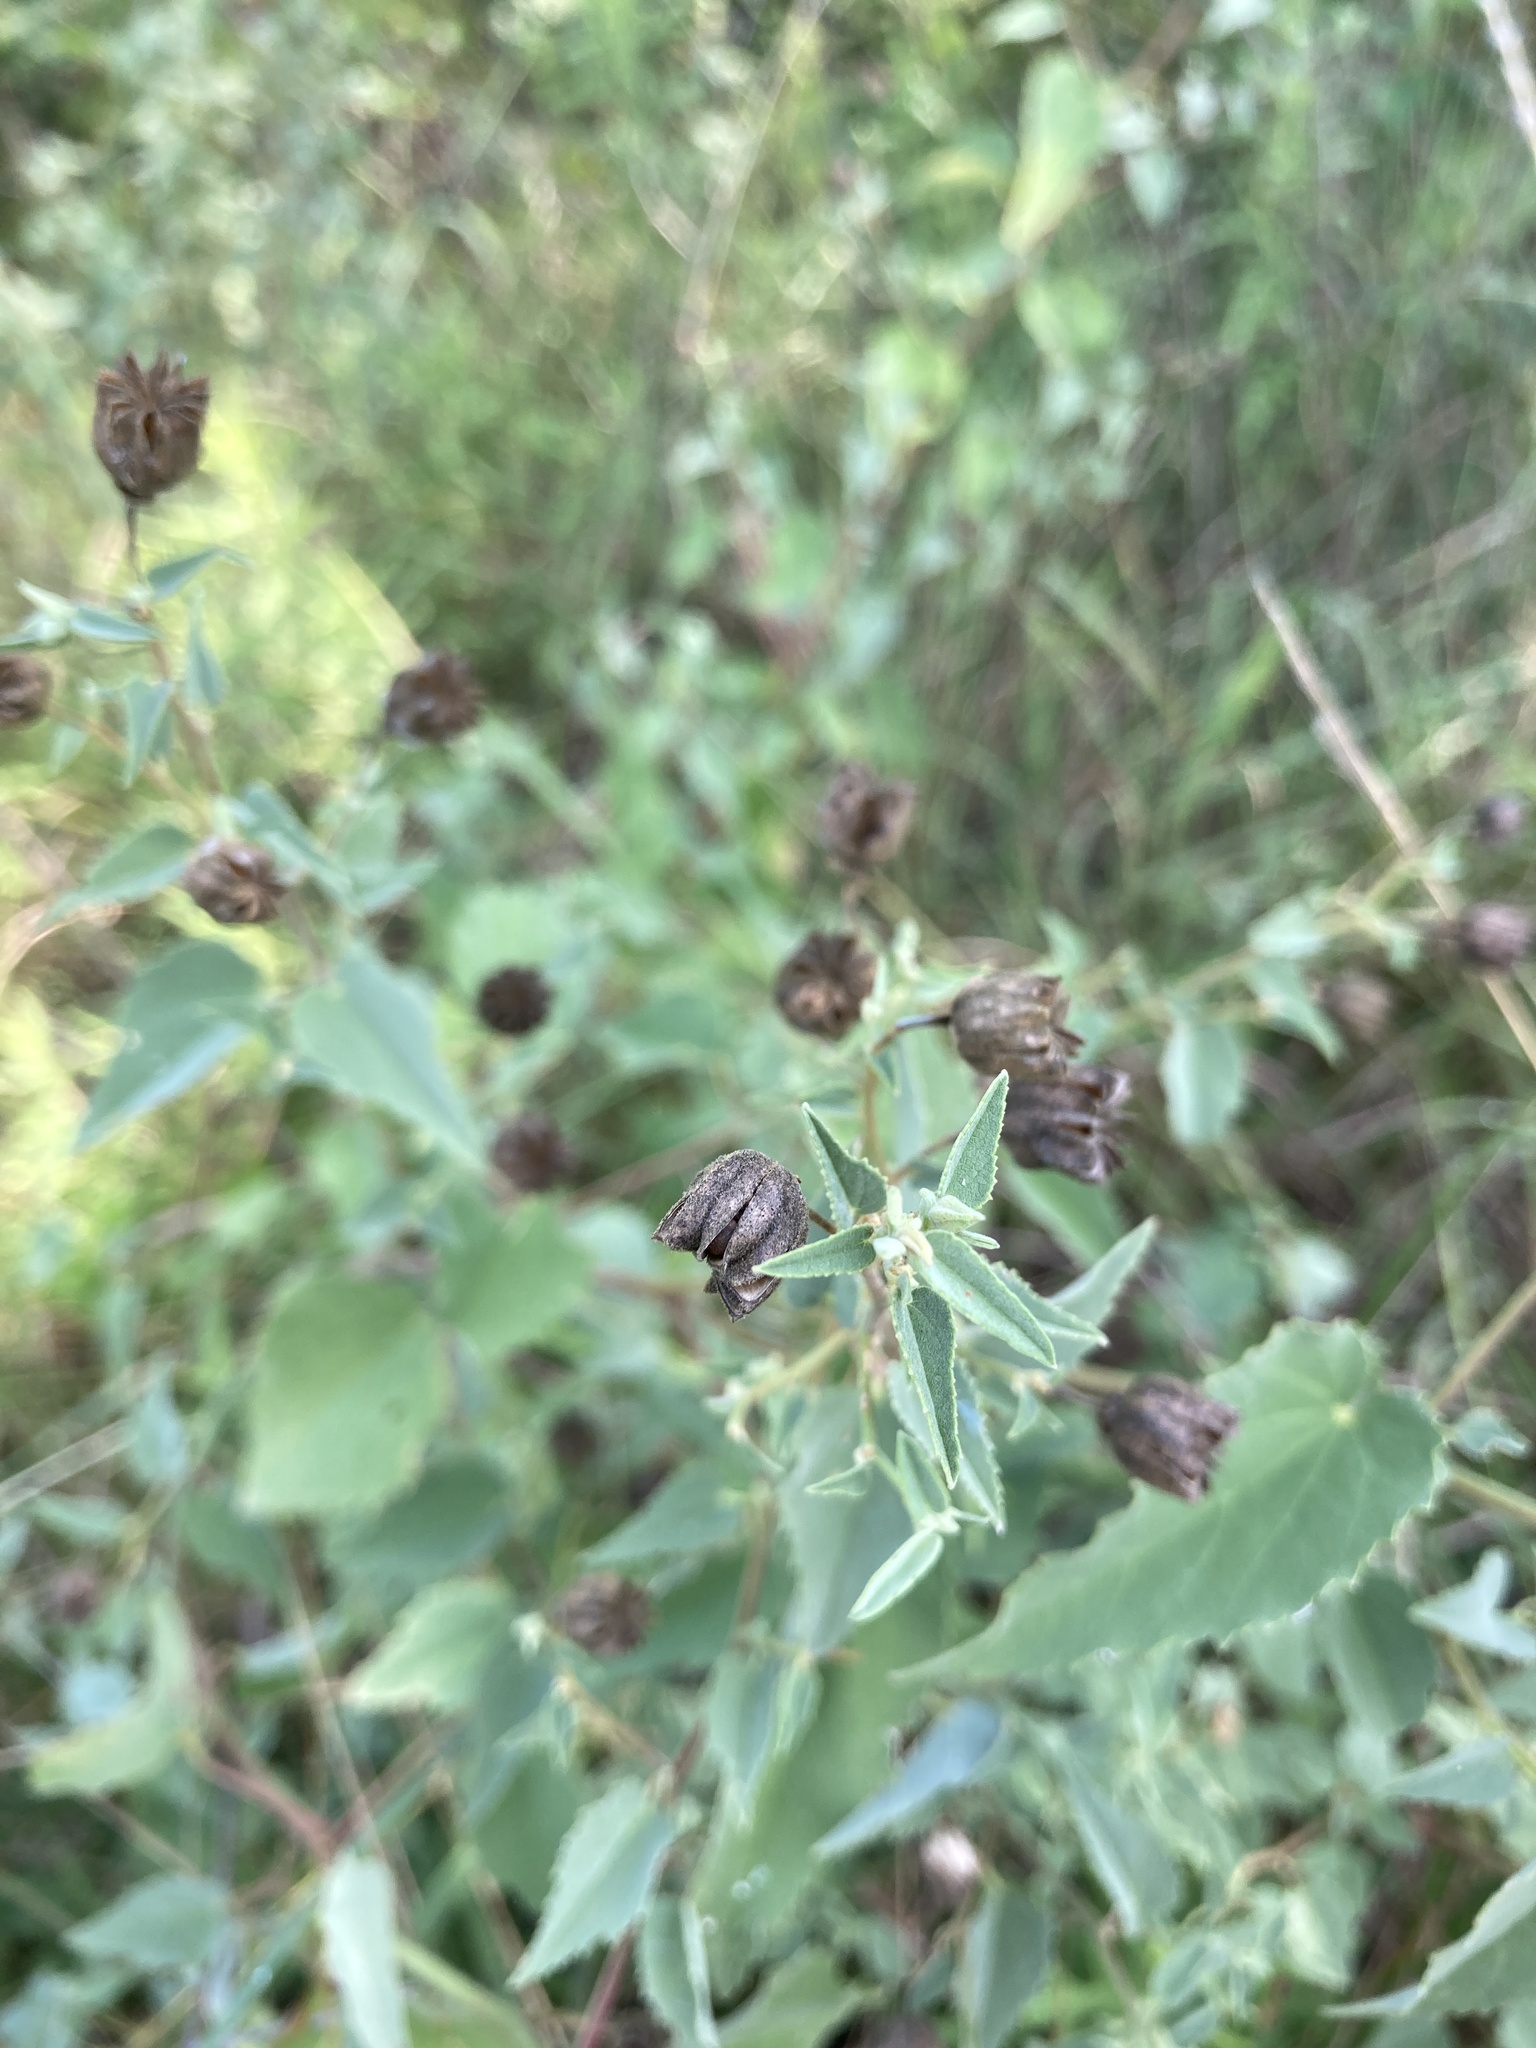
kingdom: Plantae
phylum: Tracheophyta
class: Magnoliopsida
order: Malvales
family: Malvaceae
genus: Abutilon
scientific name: Abutilon fruticosum
